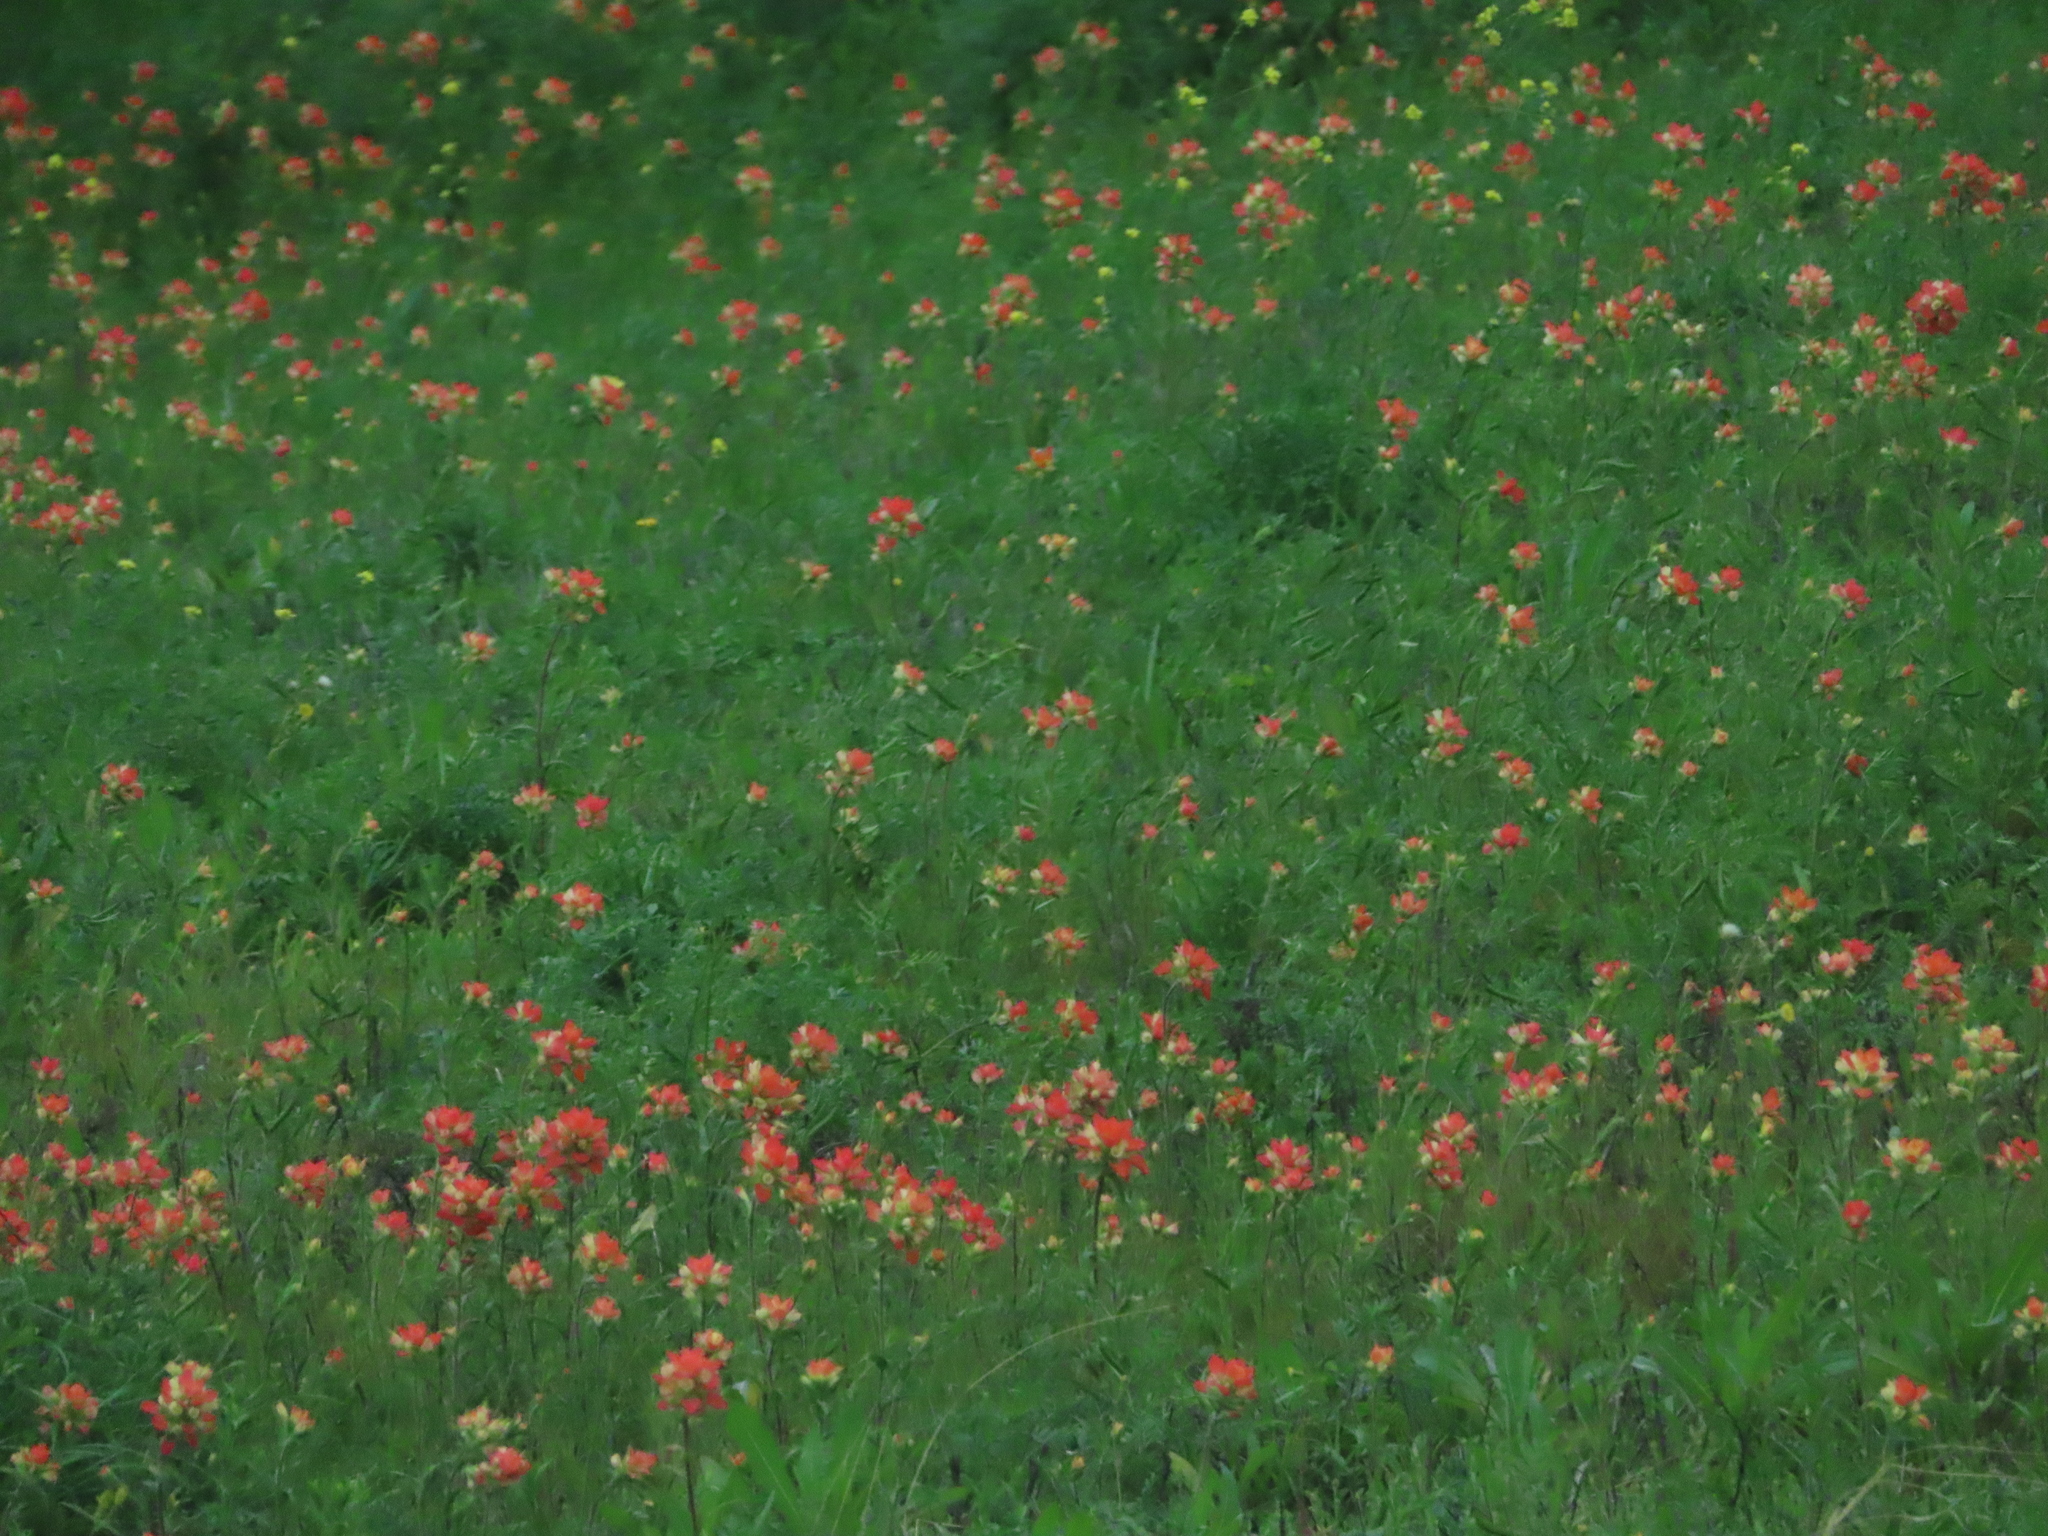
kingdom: Plantae
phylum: Tracheophyta
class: Magnoliopsida
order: Lamiales
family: Orobanchaceae
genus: Castilleja
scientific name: Castilleja indivisa
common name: Texas paintbrush
